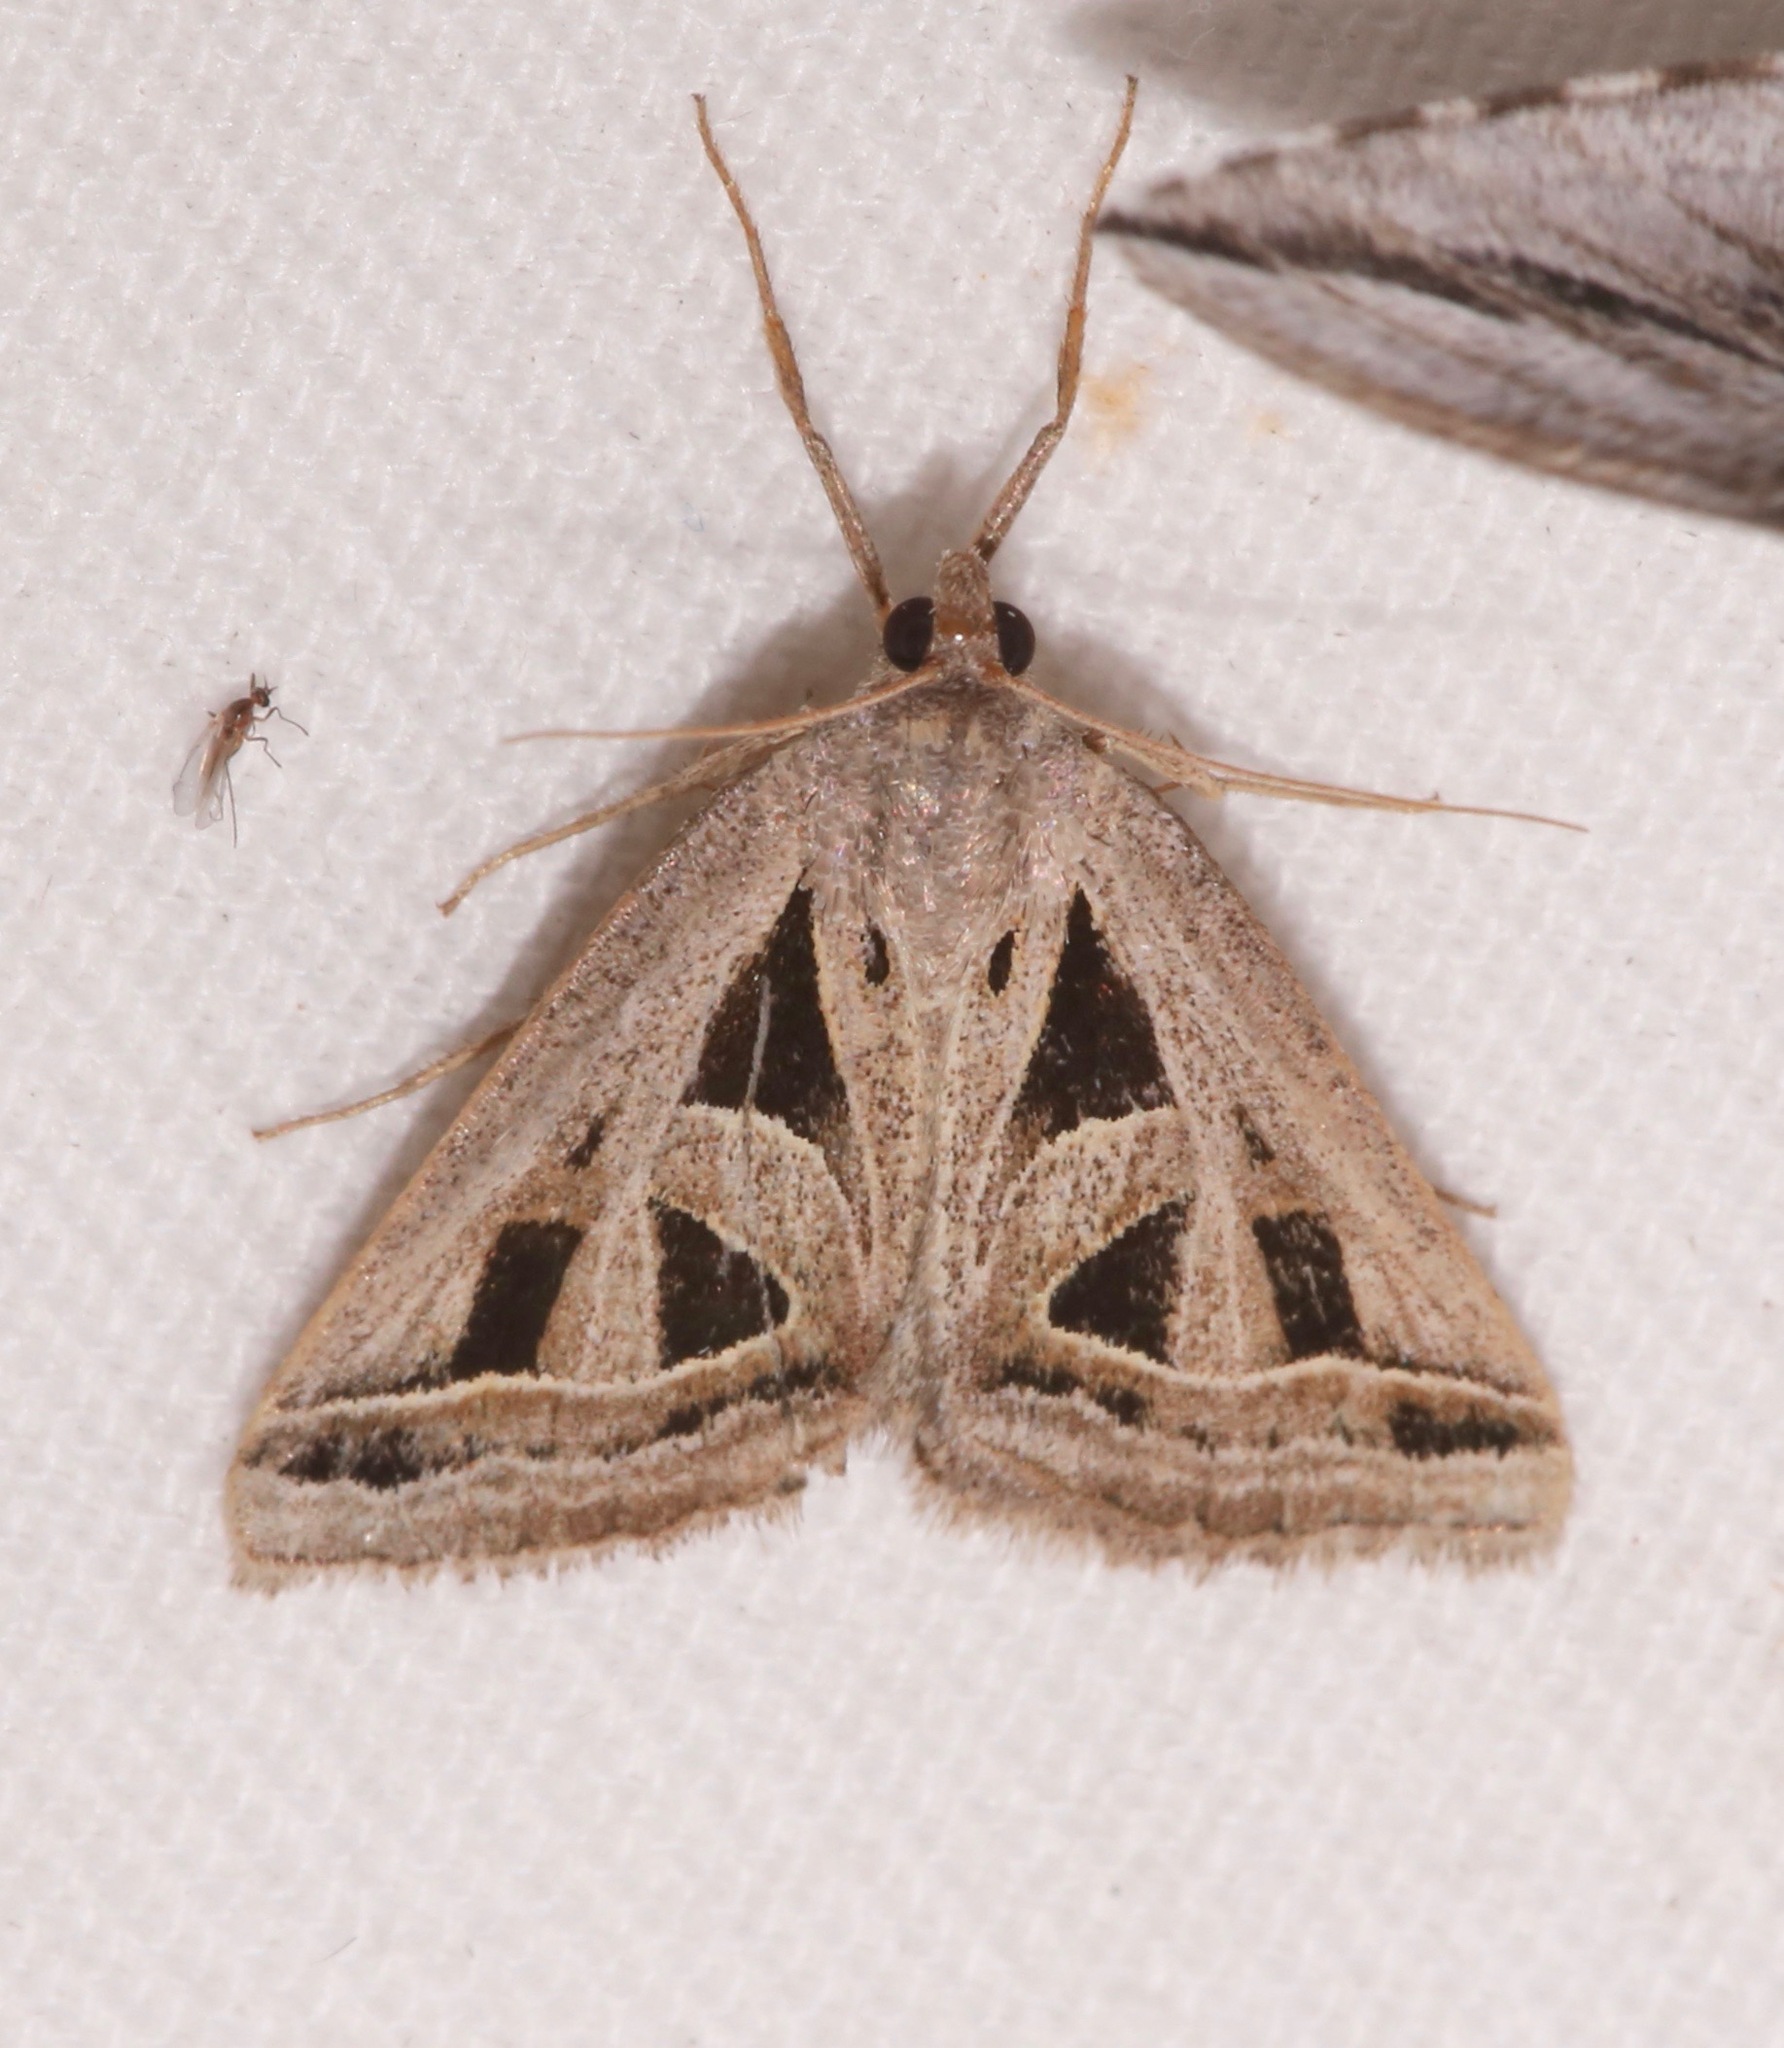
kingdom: Animalia
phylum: Arthropoda
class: Insecta
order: Lepidoptera
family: Erebidae
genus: Callistege
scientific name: Callistege diagonalis
